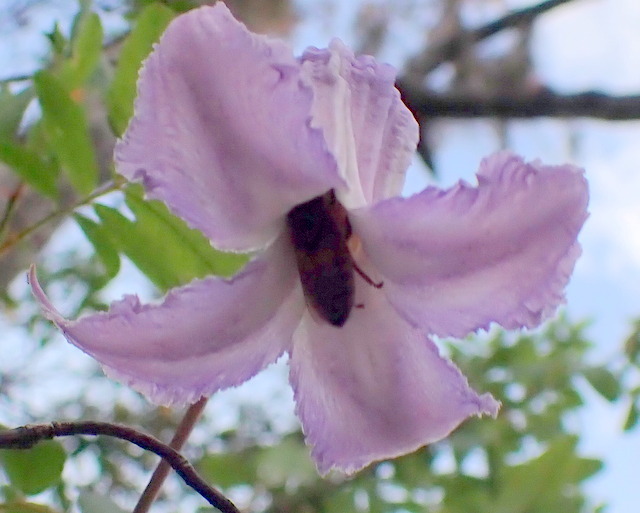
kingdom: Animalia
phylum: Arthropoda
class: Insecta
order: Hymenoptera
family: Apidae
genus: Apis
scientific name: Apis mellifera
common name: Honey bee
